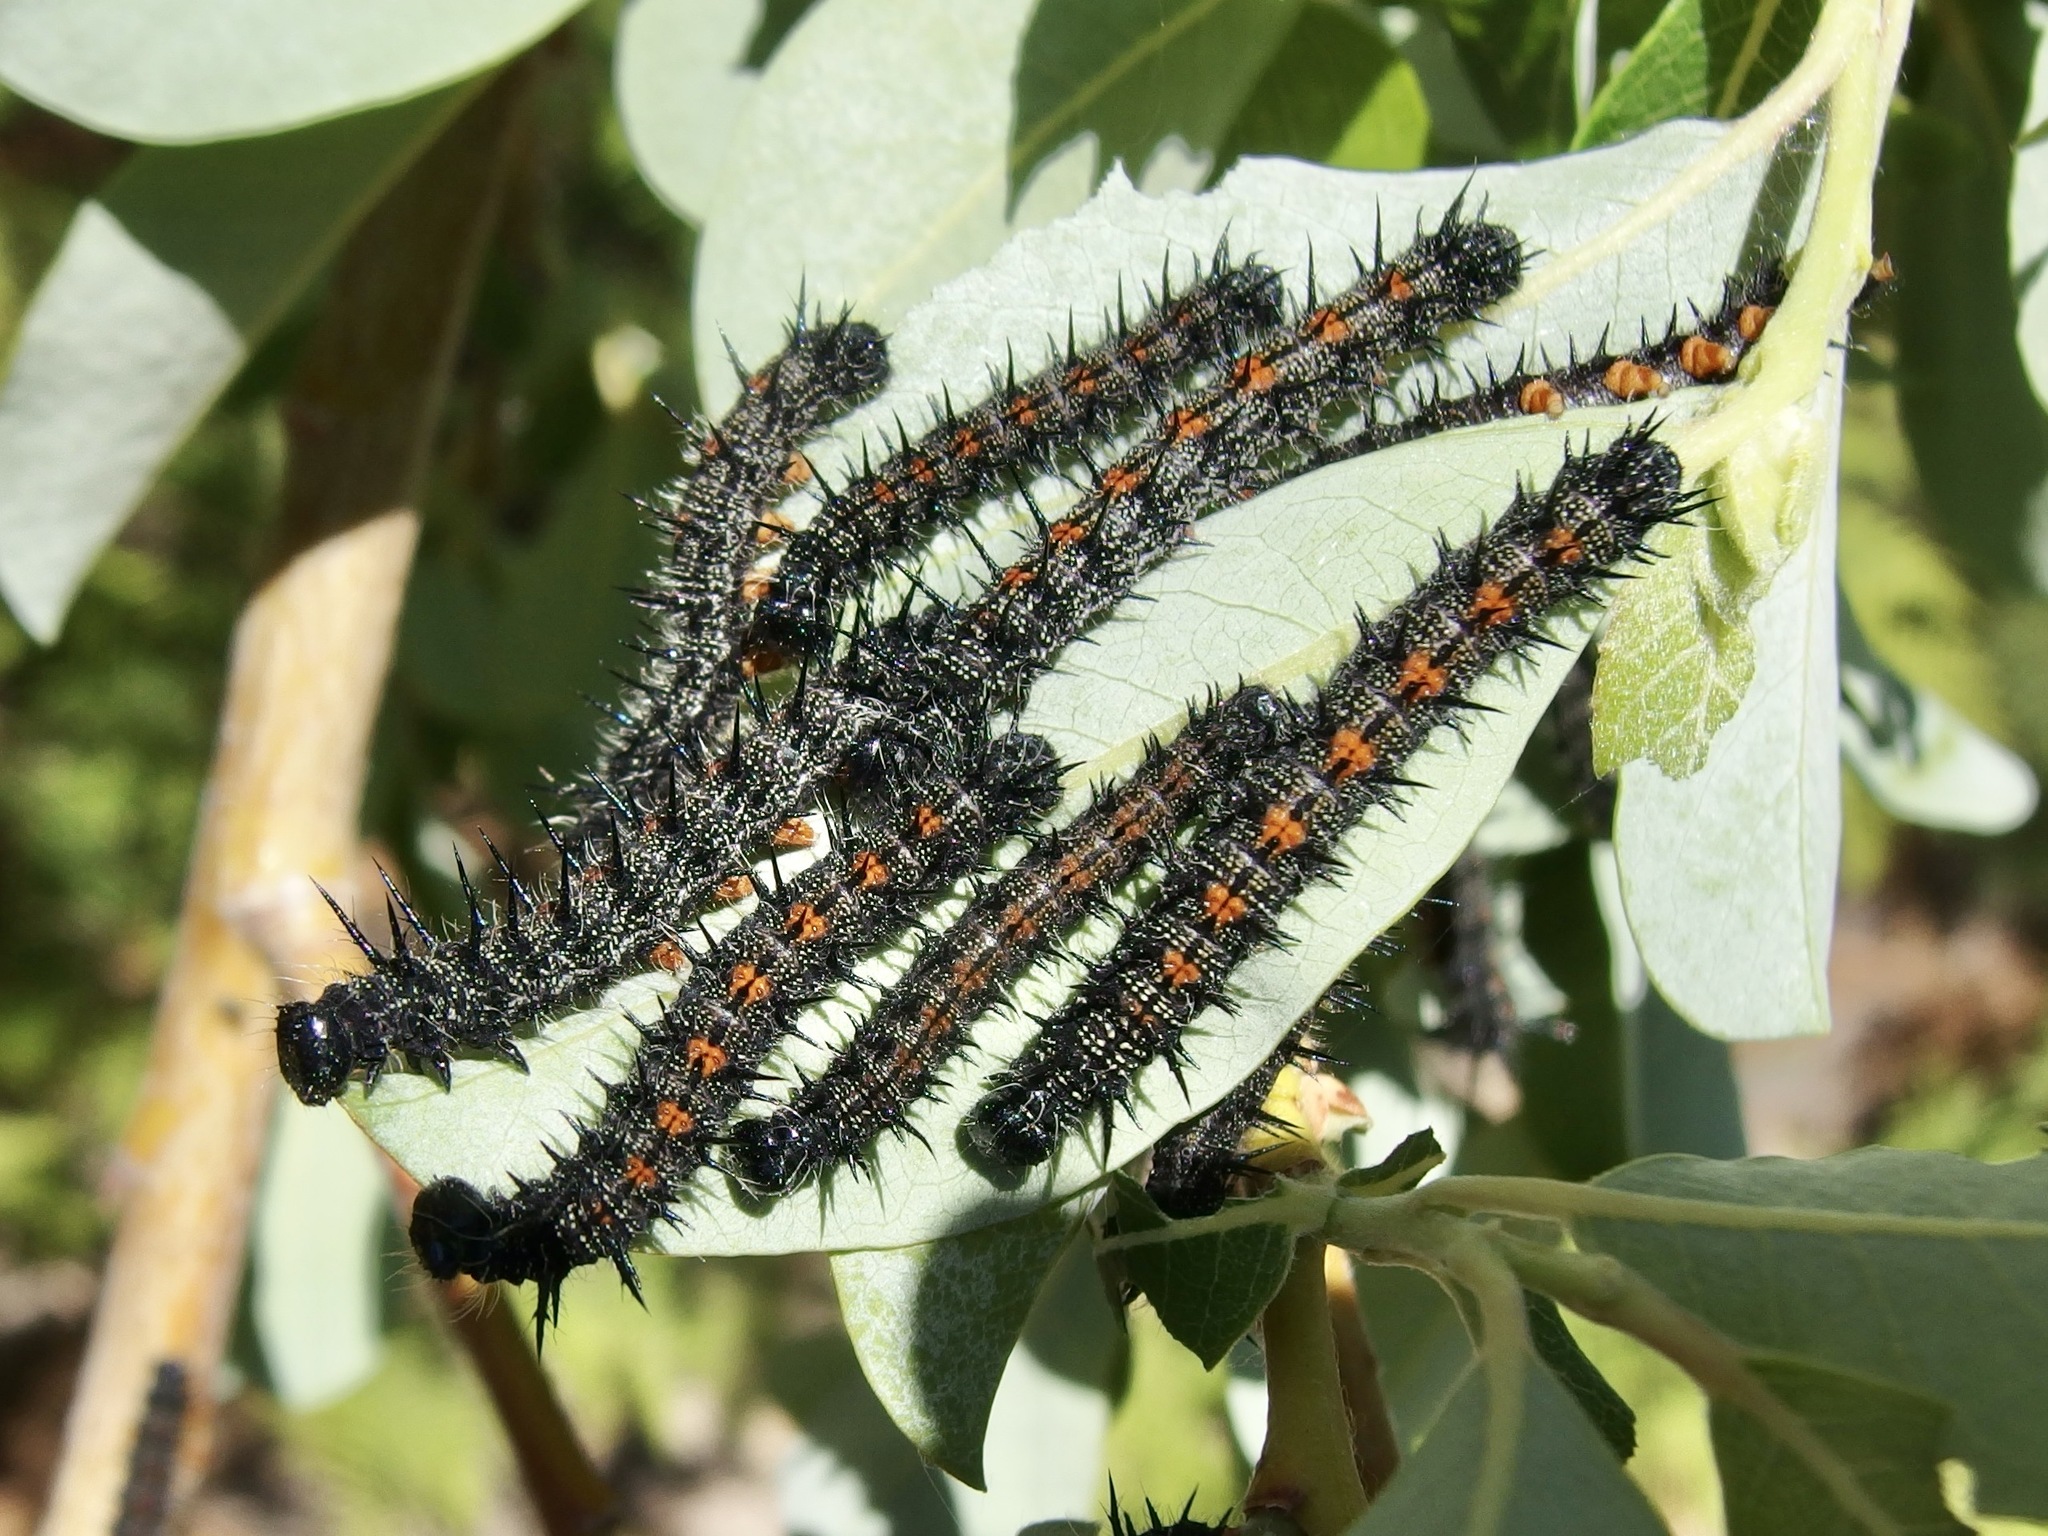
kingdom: Animalia
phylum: Arthropoda
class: Insecta
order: Lepidoptera
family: Nymphalidae
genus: Nymphalis
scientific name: Nymphalis antiopa
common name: Camberwell beauty
